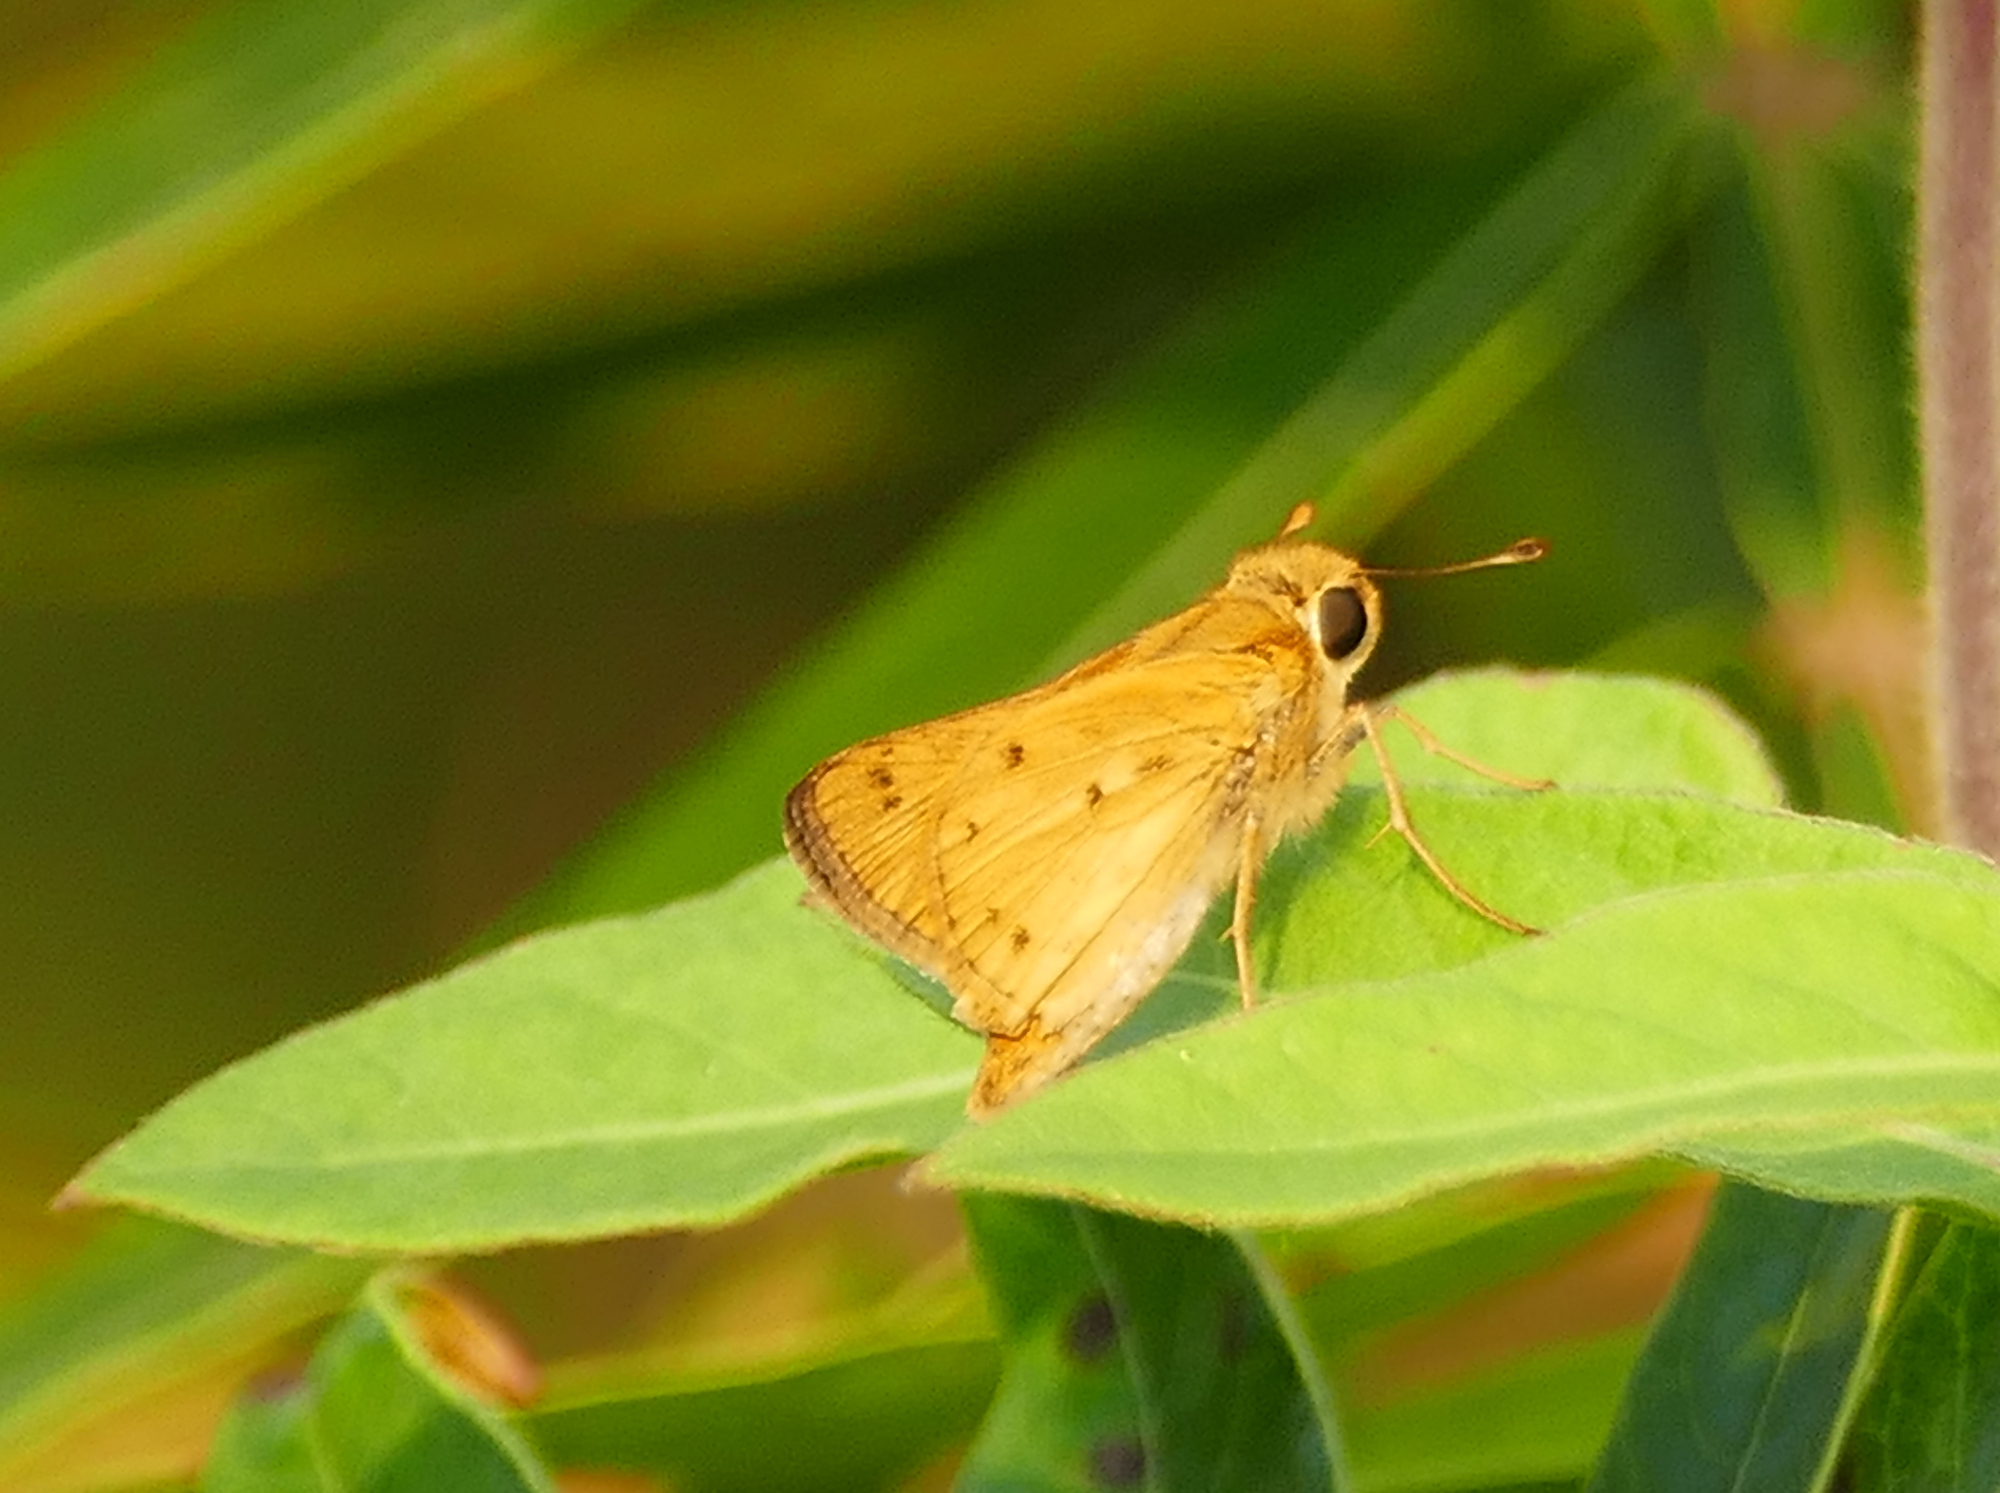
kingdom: Animalia
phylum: Arthropoda
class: Insecta
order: Lepidoptera
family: Hesperiidae
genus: Hylephila
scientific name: Hylephila phyleus
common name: Fiery skipper
